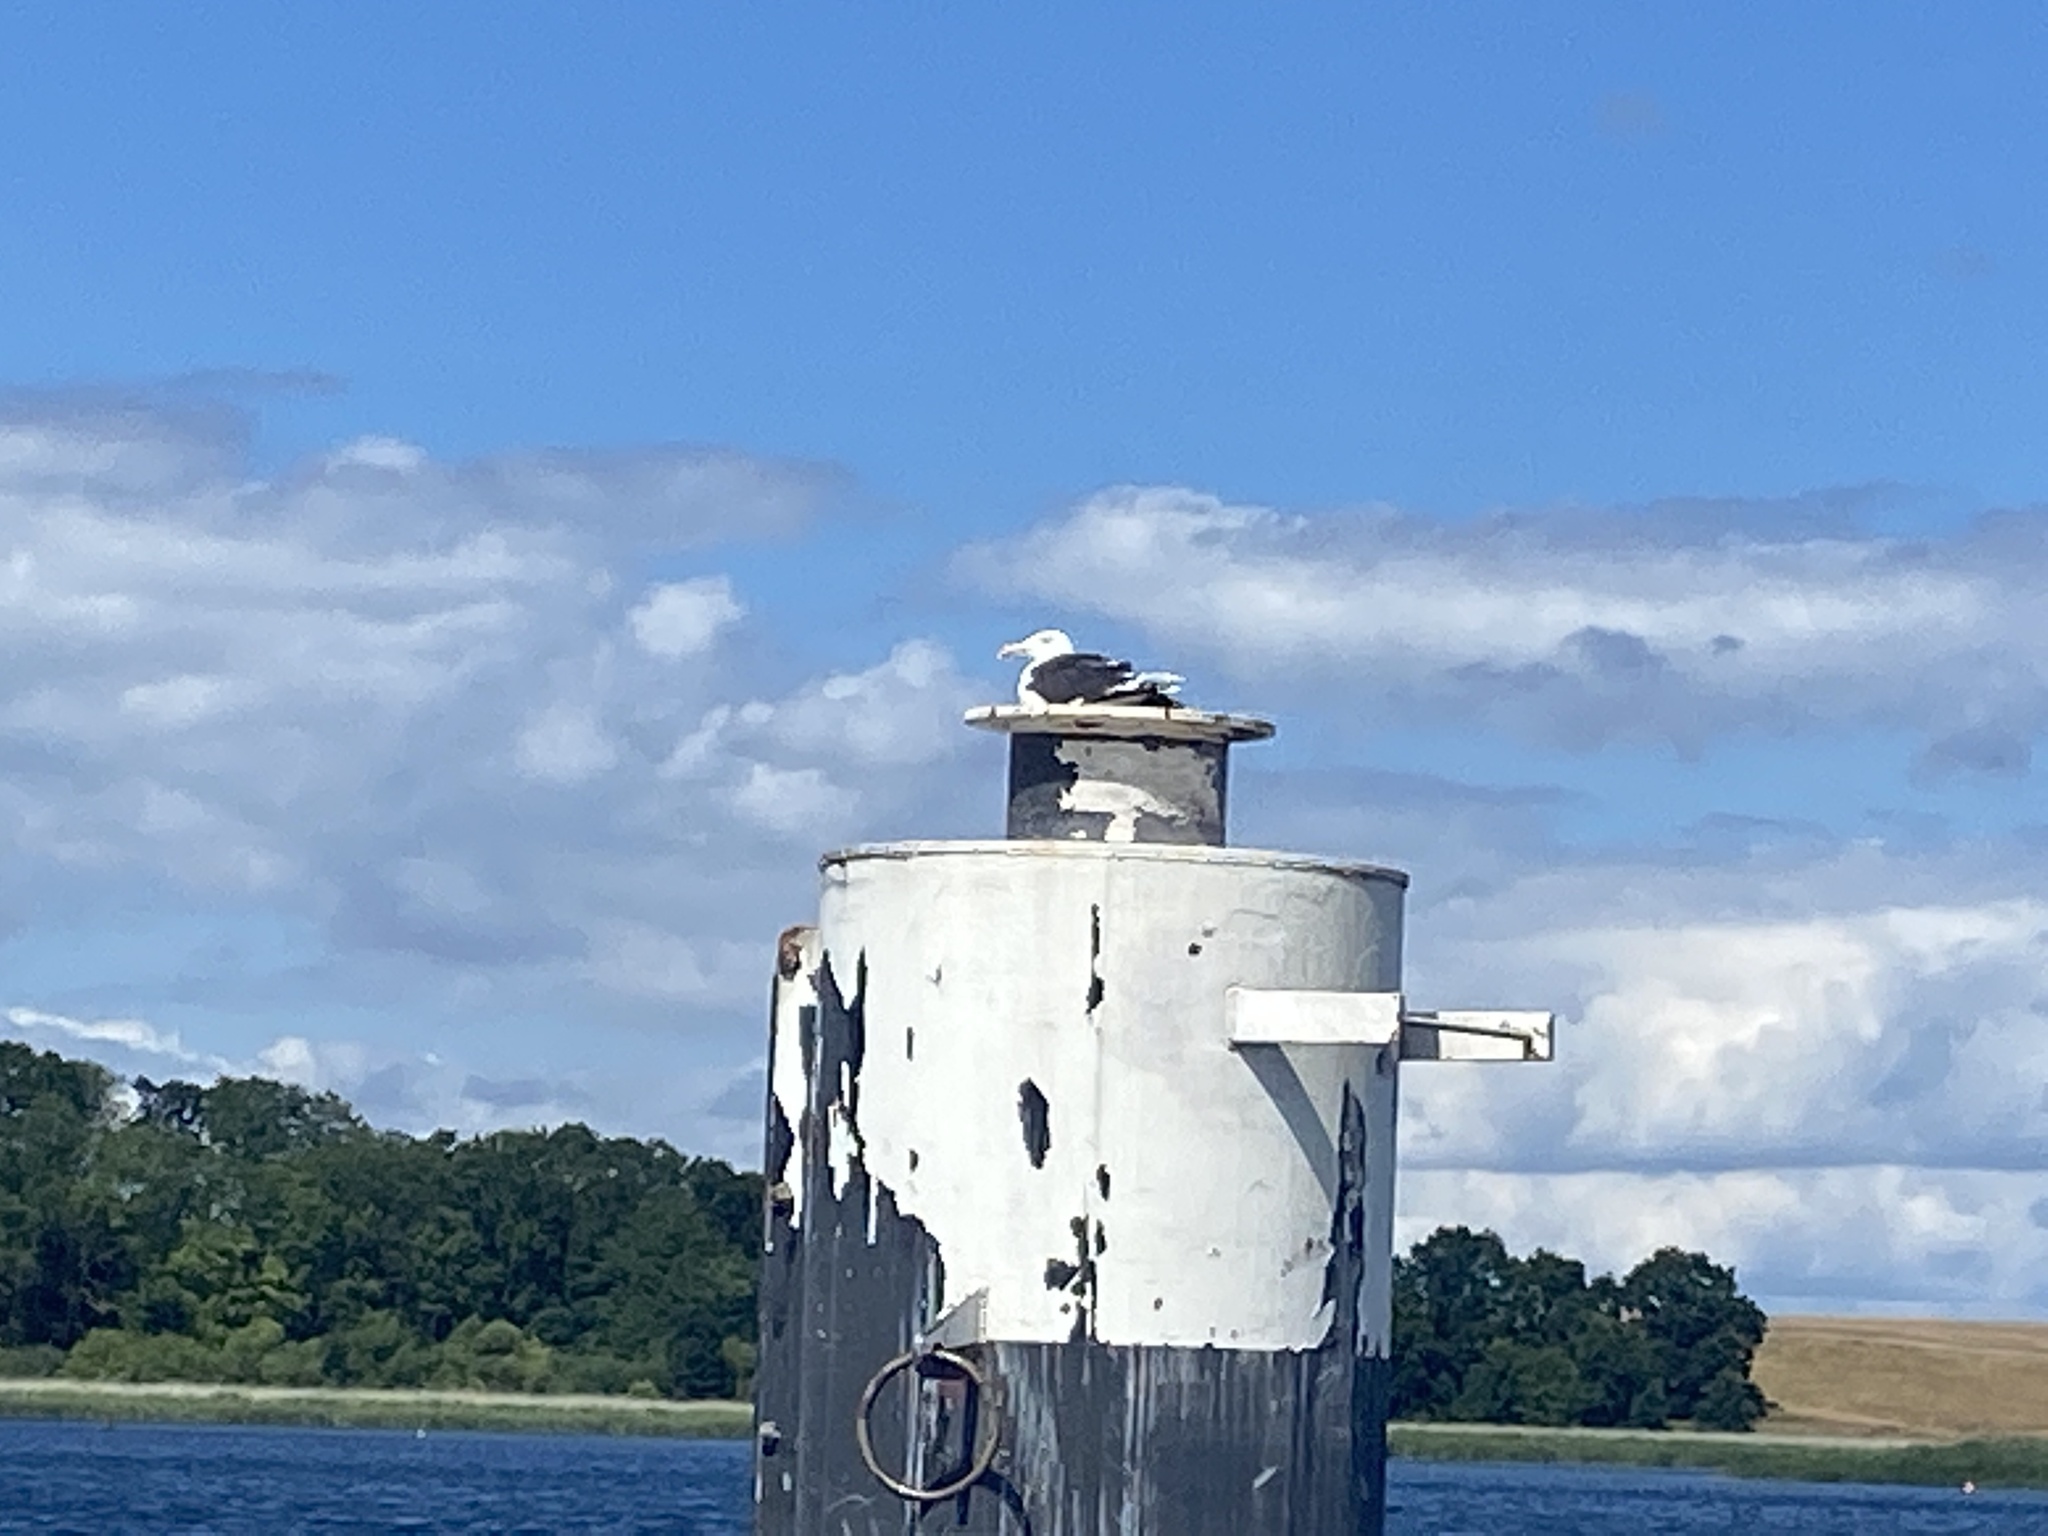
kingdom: Animalia
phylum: Chordata
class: Aves
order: Charadriiformes
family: Laridae
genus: Larus
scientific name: Larus marinus
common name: Great black-backed gull
